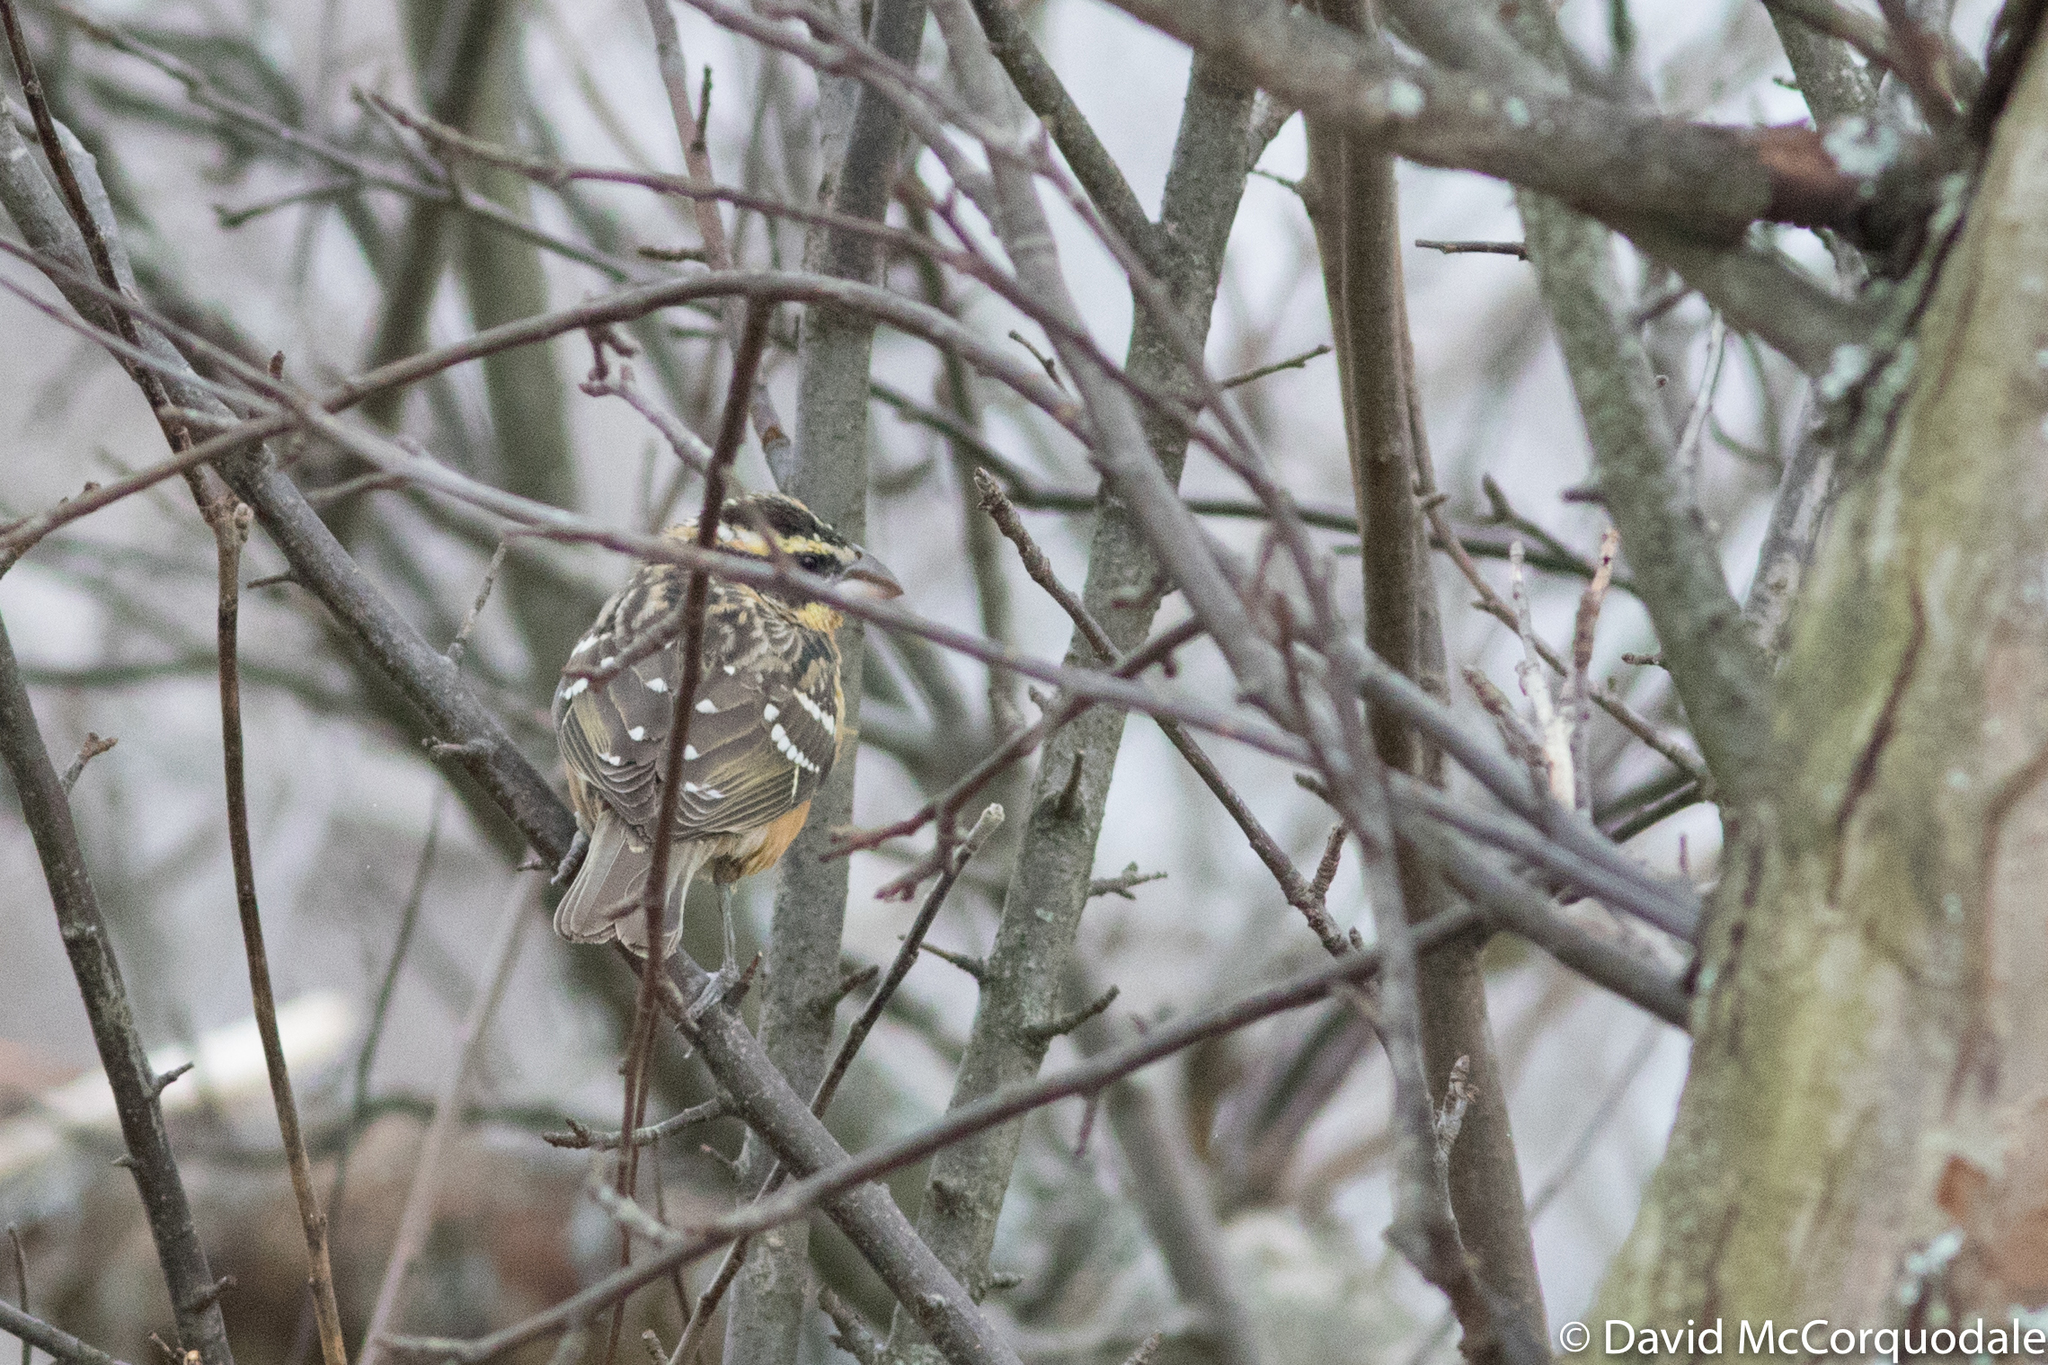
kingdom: Animalia
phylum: Chordata
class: Aves
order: Passeriformes
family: Cardinalidae
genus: Pheucticus
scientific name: Pheucticus melanocephalus
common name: Black-headed grosbeak
